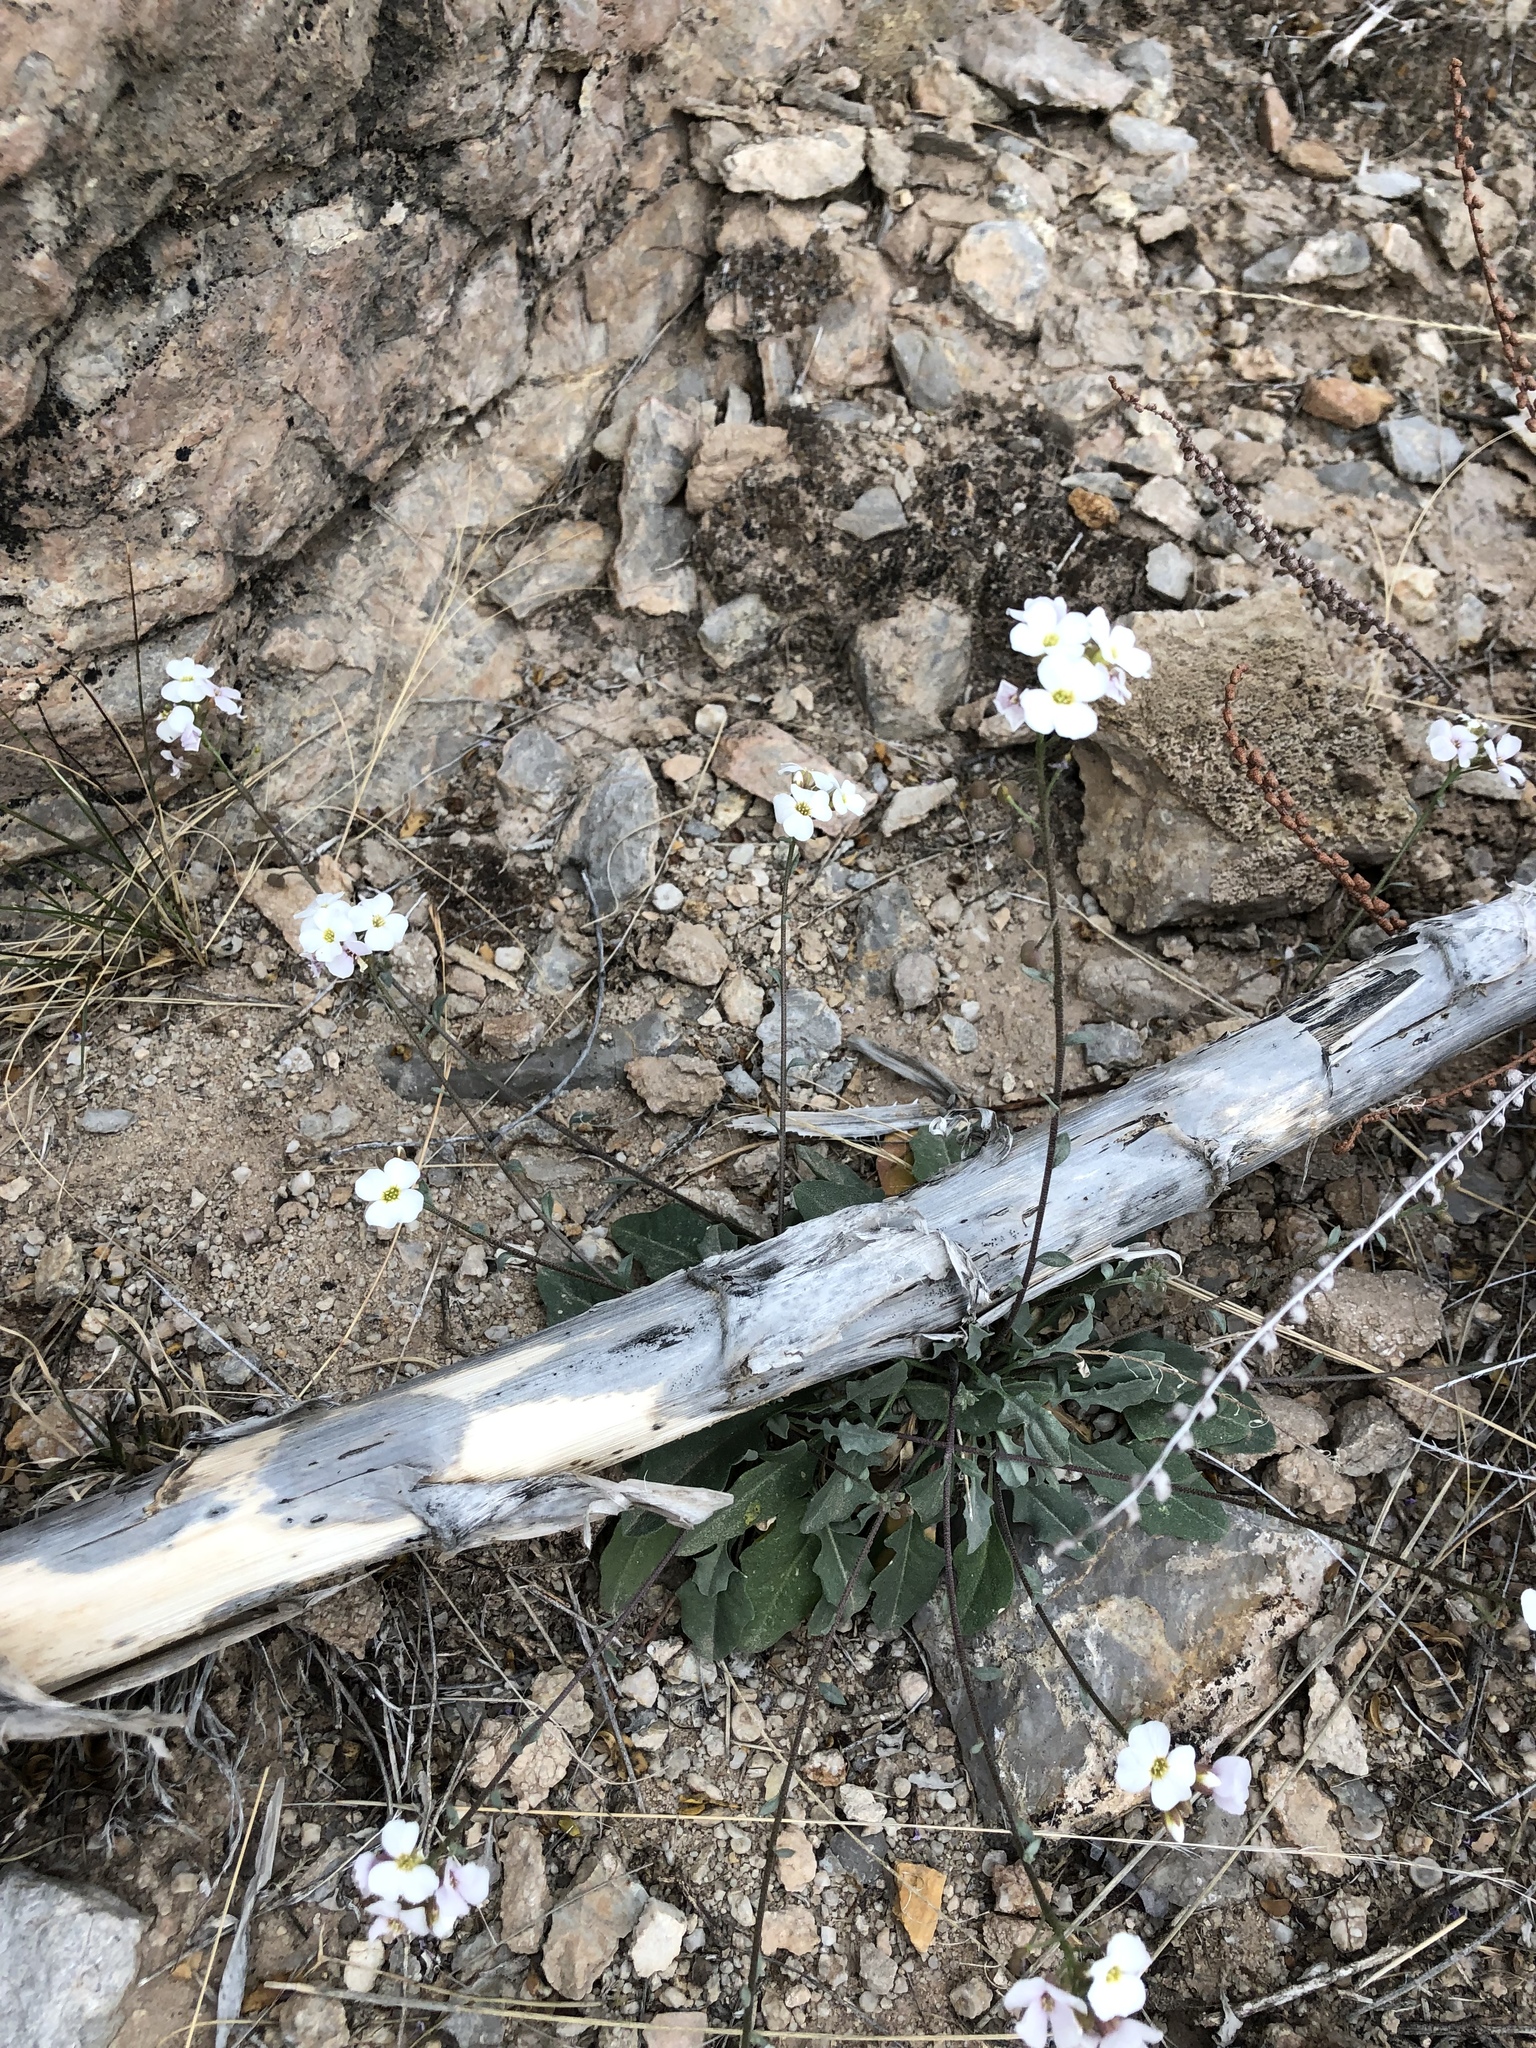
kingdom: Plantae
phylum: Tracheophyta
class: Magnoliopsida
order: Brassicales
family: Brassicaceae
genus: Physaria
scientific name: Physaria purpurea
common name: Rose bladderpod
